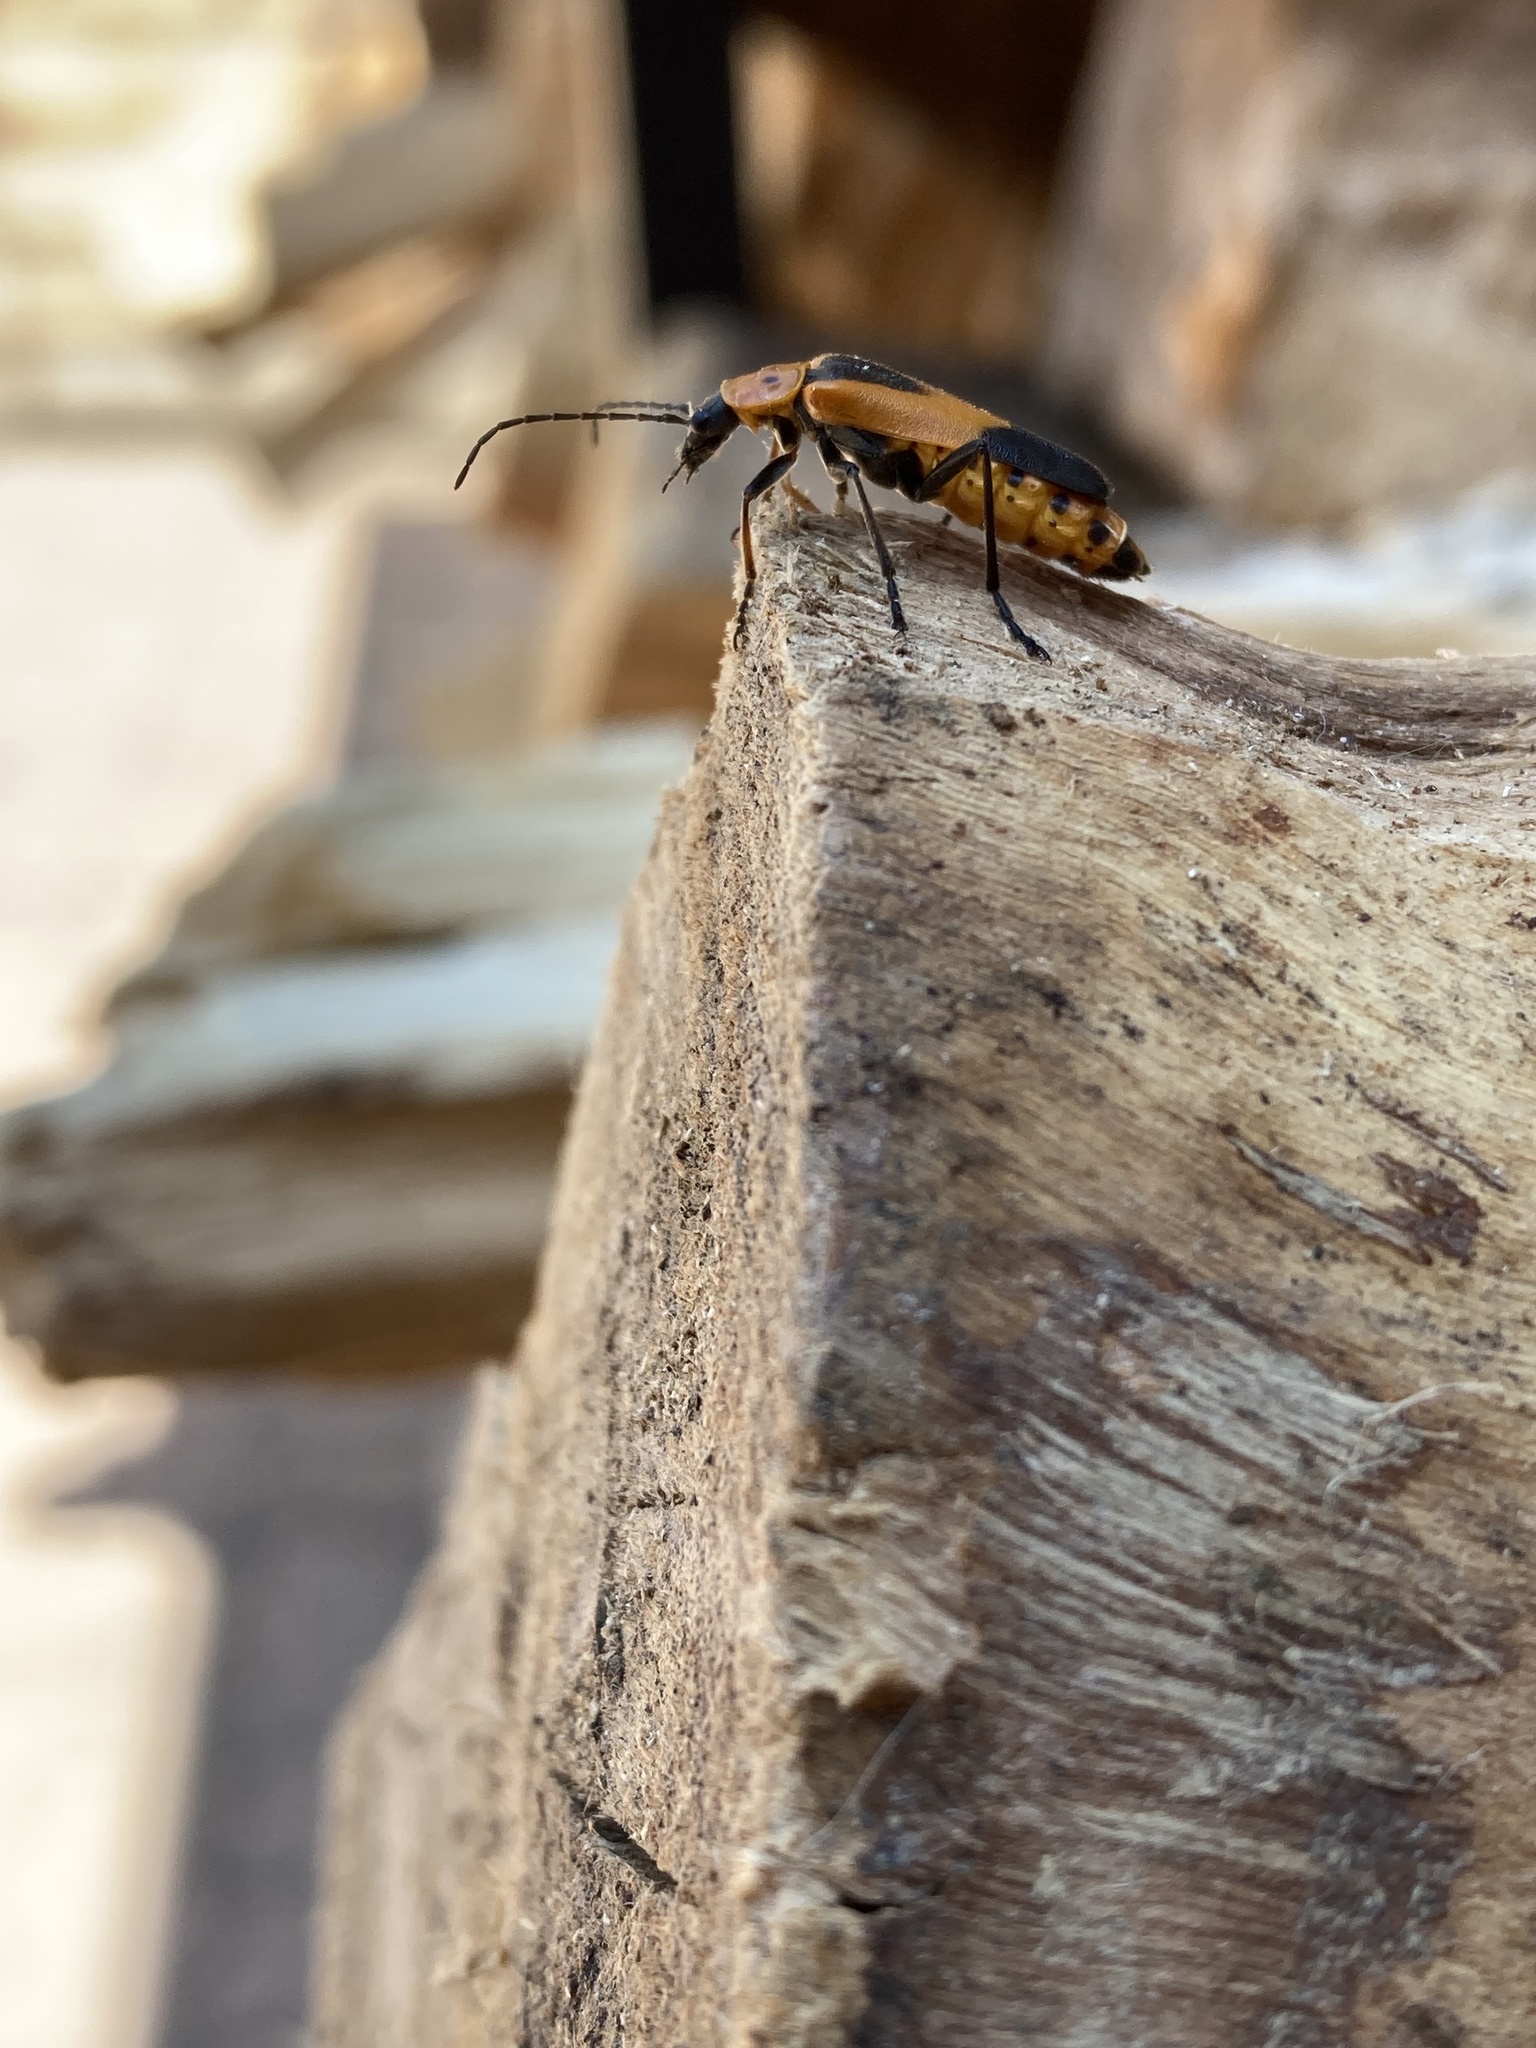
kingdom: Animalia
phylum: Arthropoda
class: Insecta
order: Coleoptera
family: Cantharidae
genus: Chauliognathus
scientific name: Chauliognathus basalis
